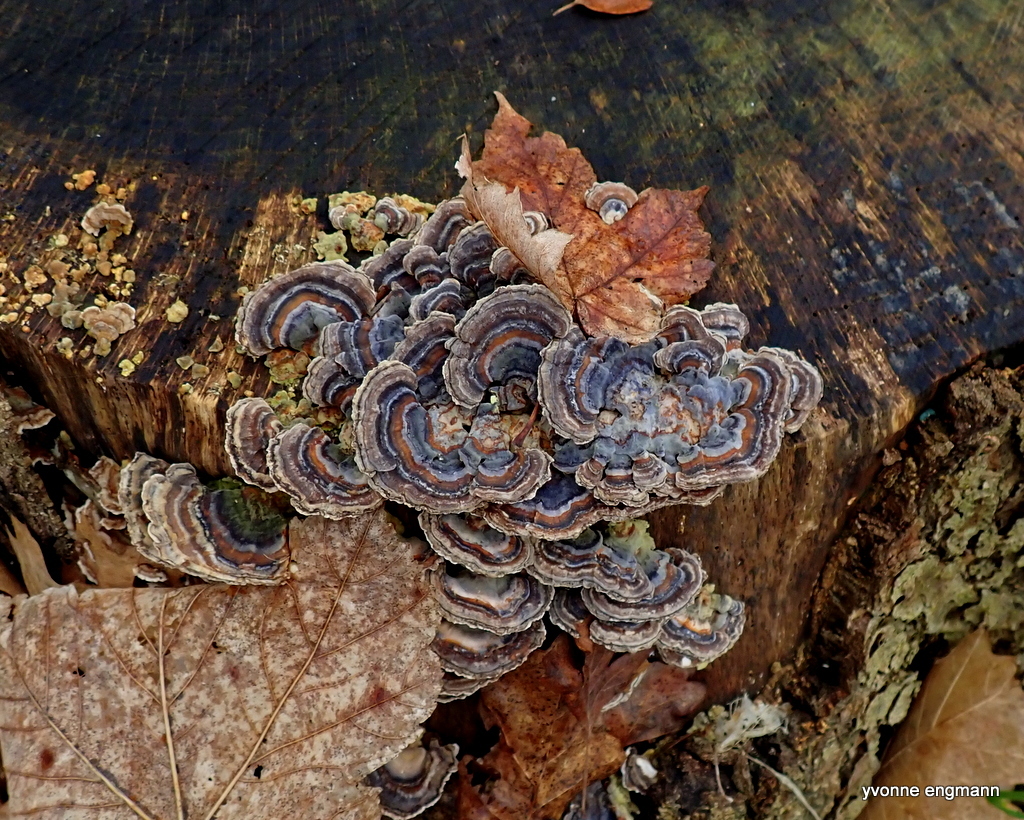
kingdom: Fungi
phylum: Basidiomycota
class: Agaricomycetes
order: Polyporales
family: Polyporaceae
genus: Trametes
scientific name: Trametes versicolor
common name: Turkeytail
